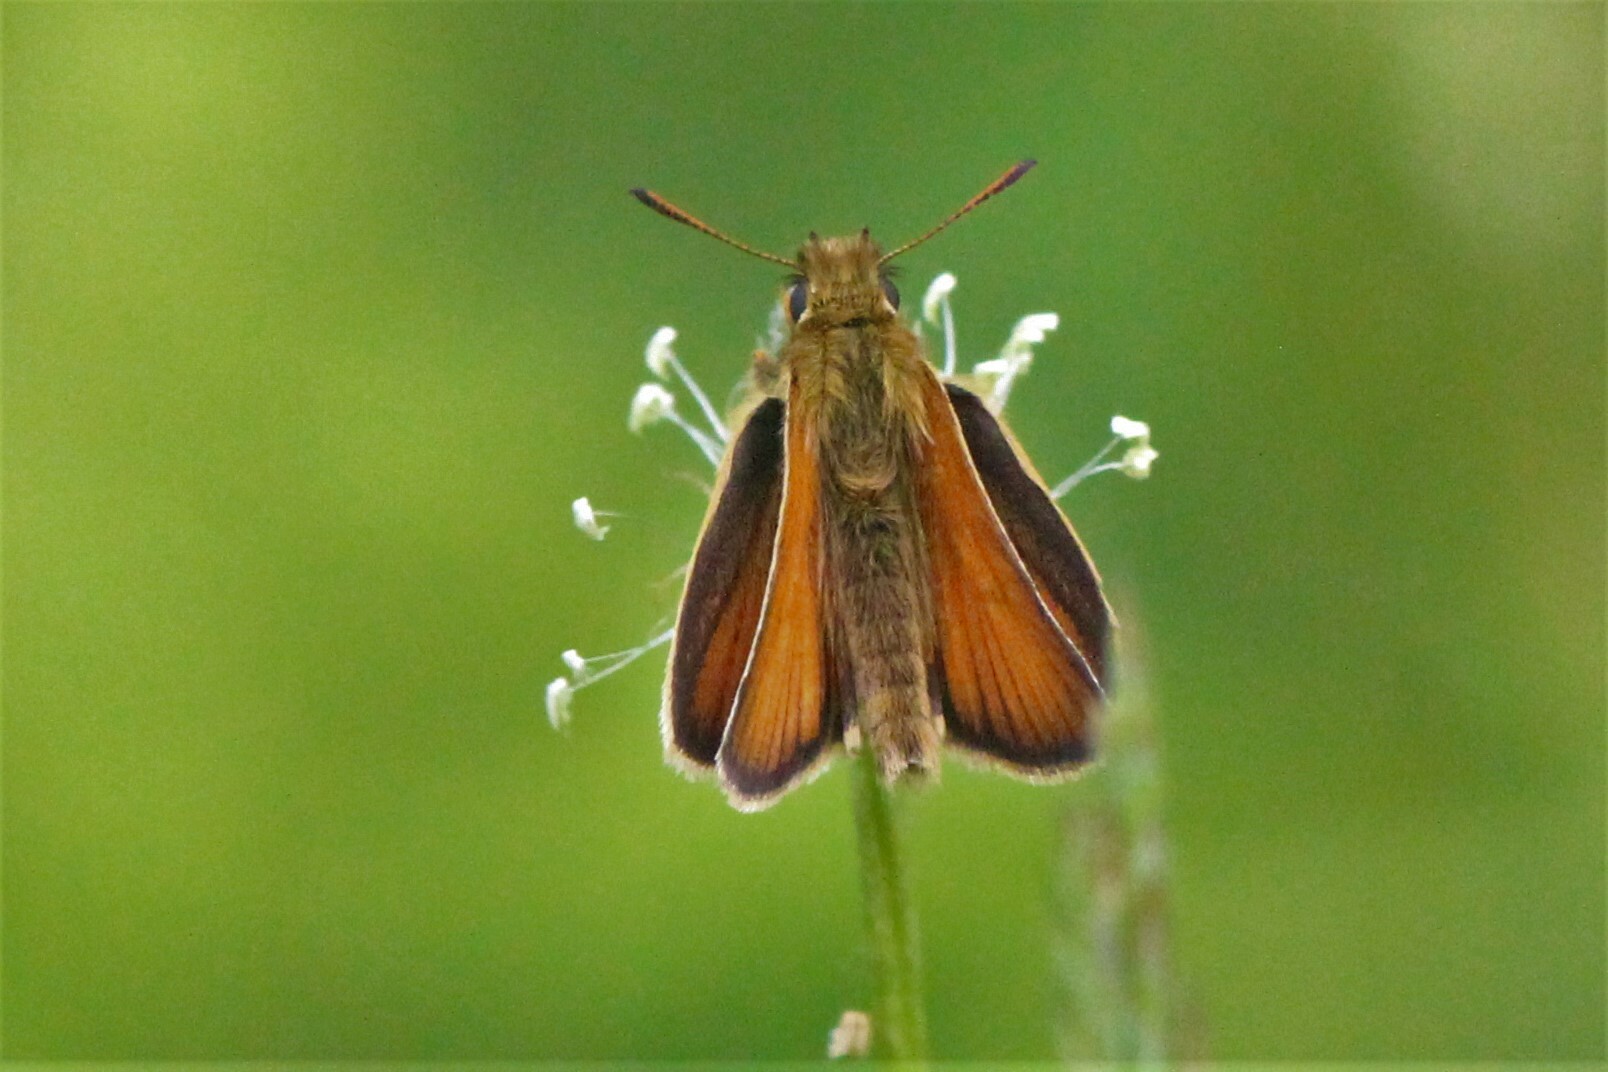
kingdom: Animalia
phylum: Arthropoda
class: Insecta
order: Lepidoptera
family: Hesperiidae
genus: Thymelicus
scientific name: Thymelicus lineola
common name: Essex skipper
